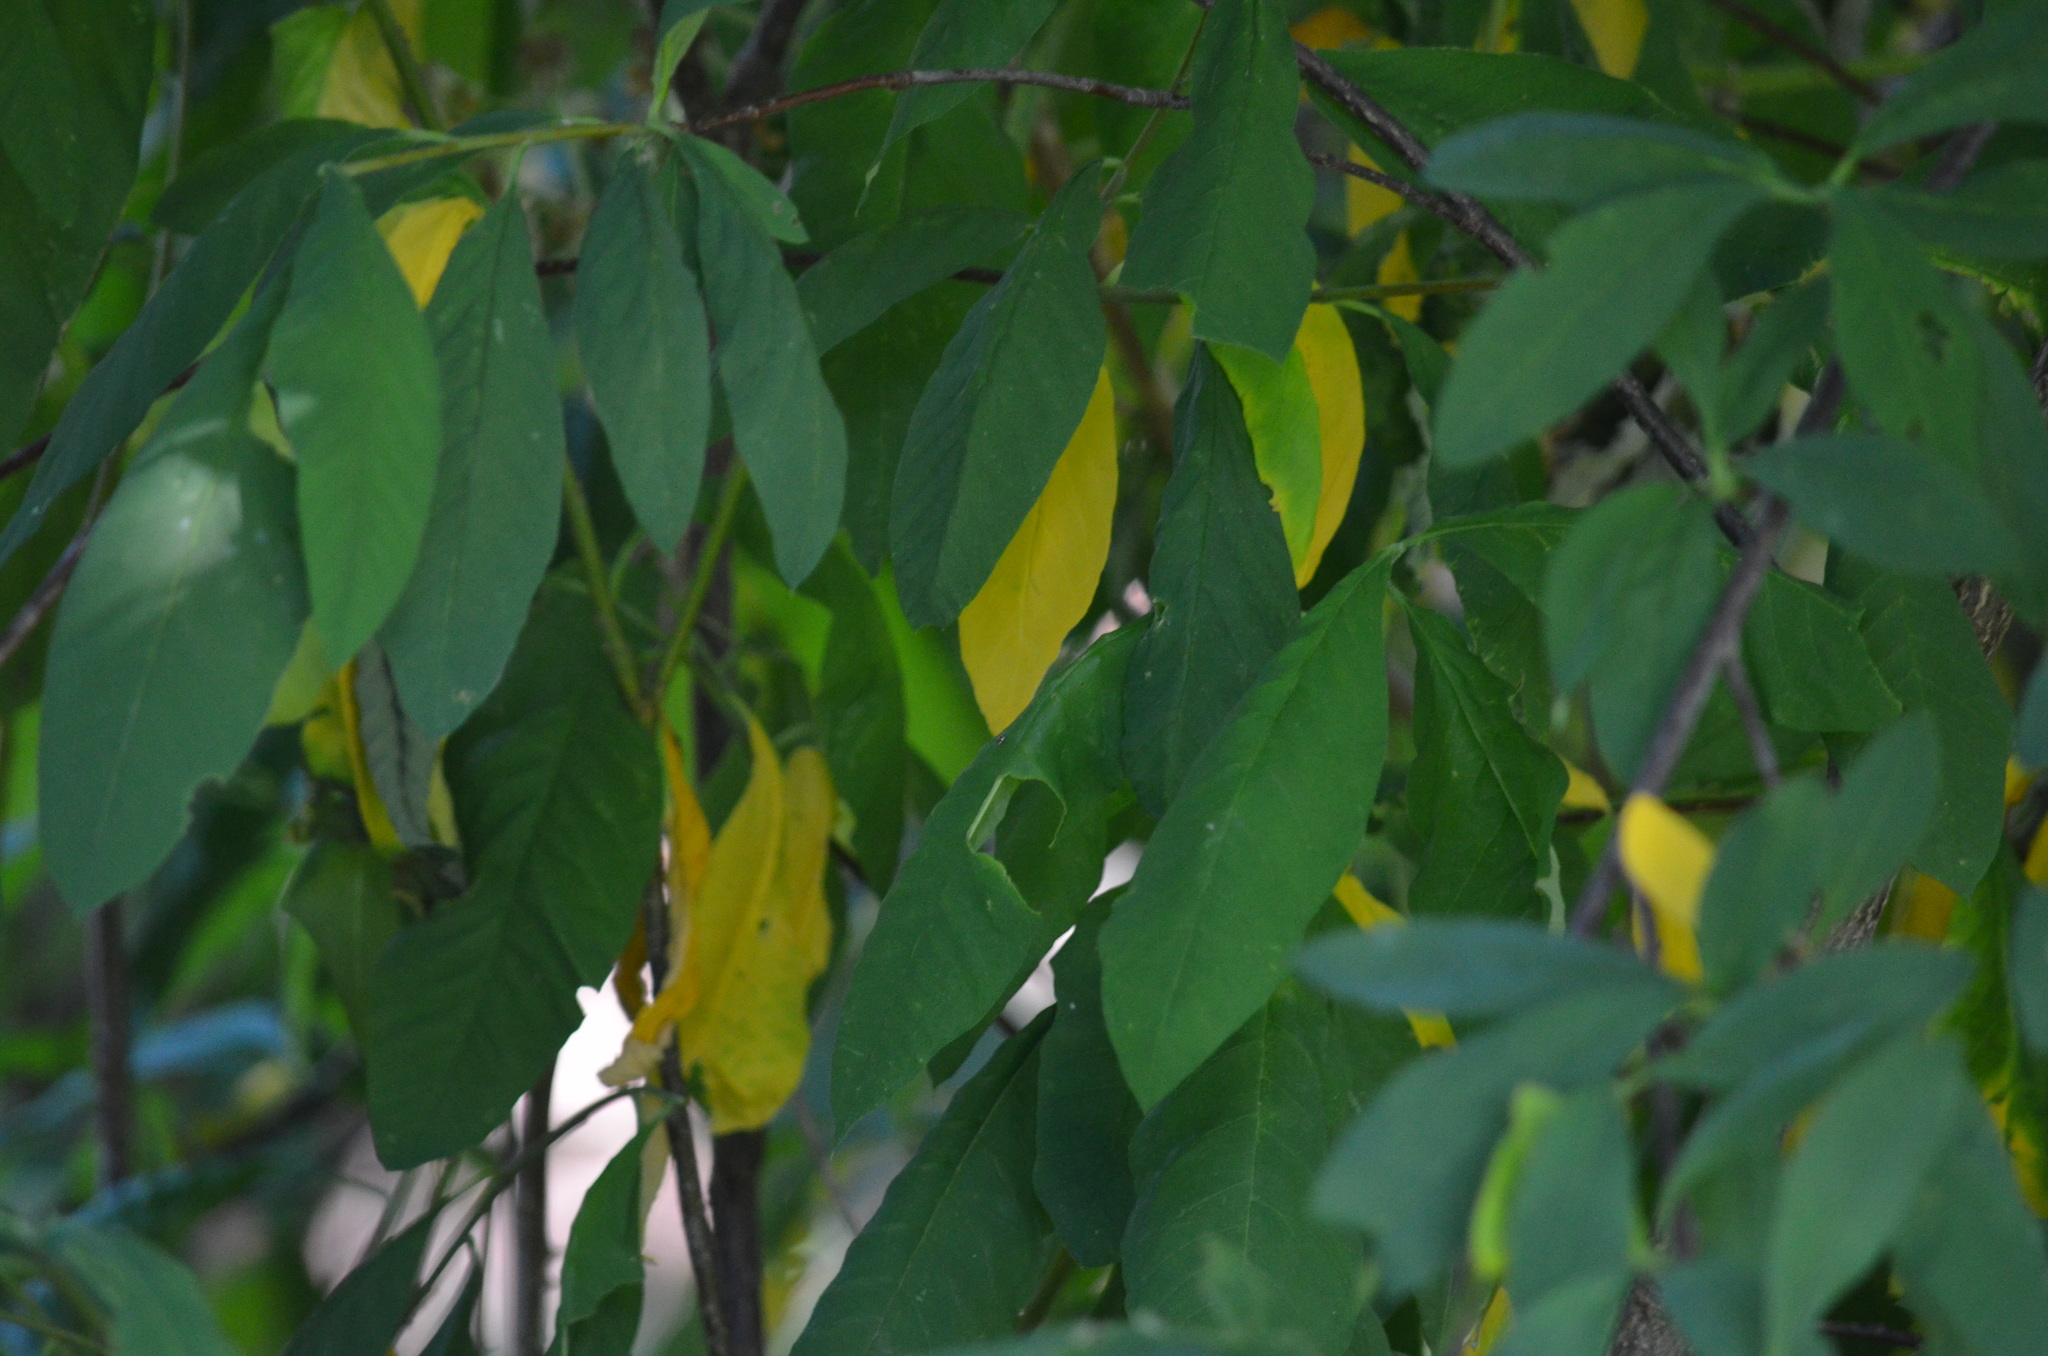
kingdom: Plantae
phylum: Tracheophyta
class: Magnoliopsida
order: Rosales
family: Rosaceae
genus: Oemleria
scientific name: Oemleria cerasiformis
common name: Osoberry
